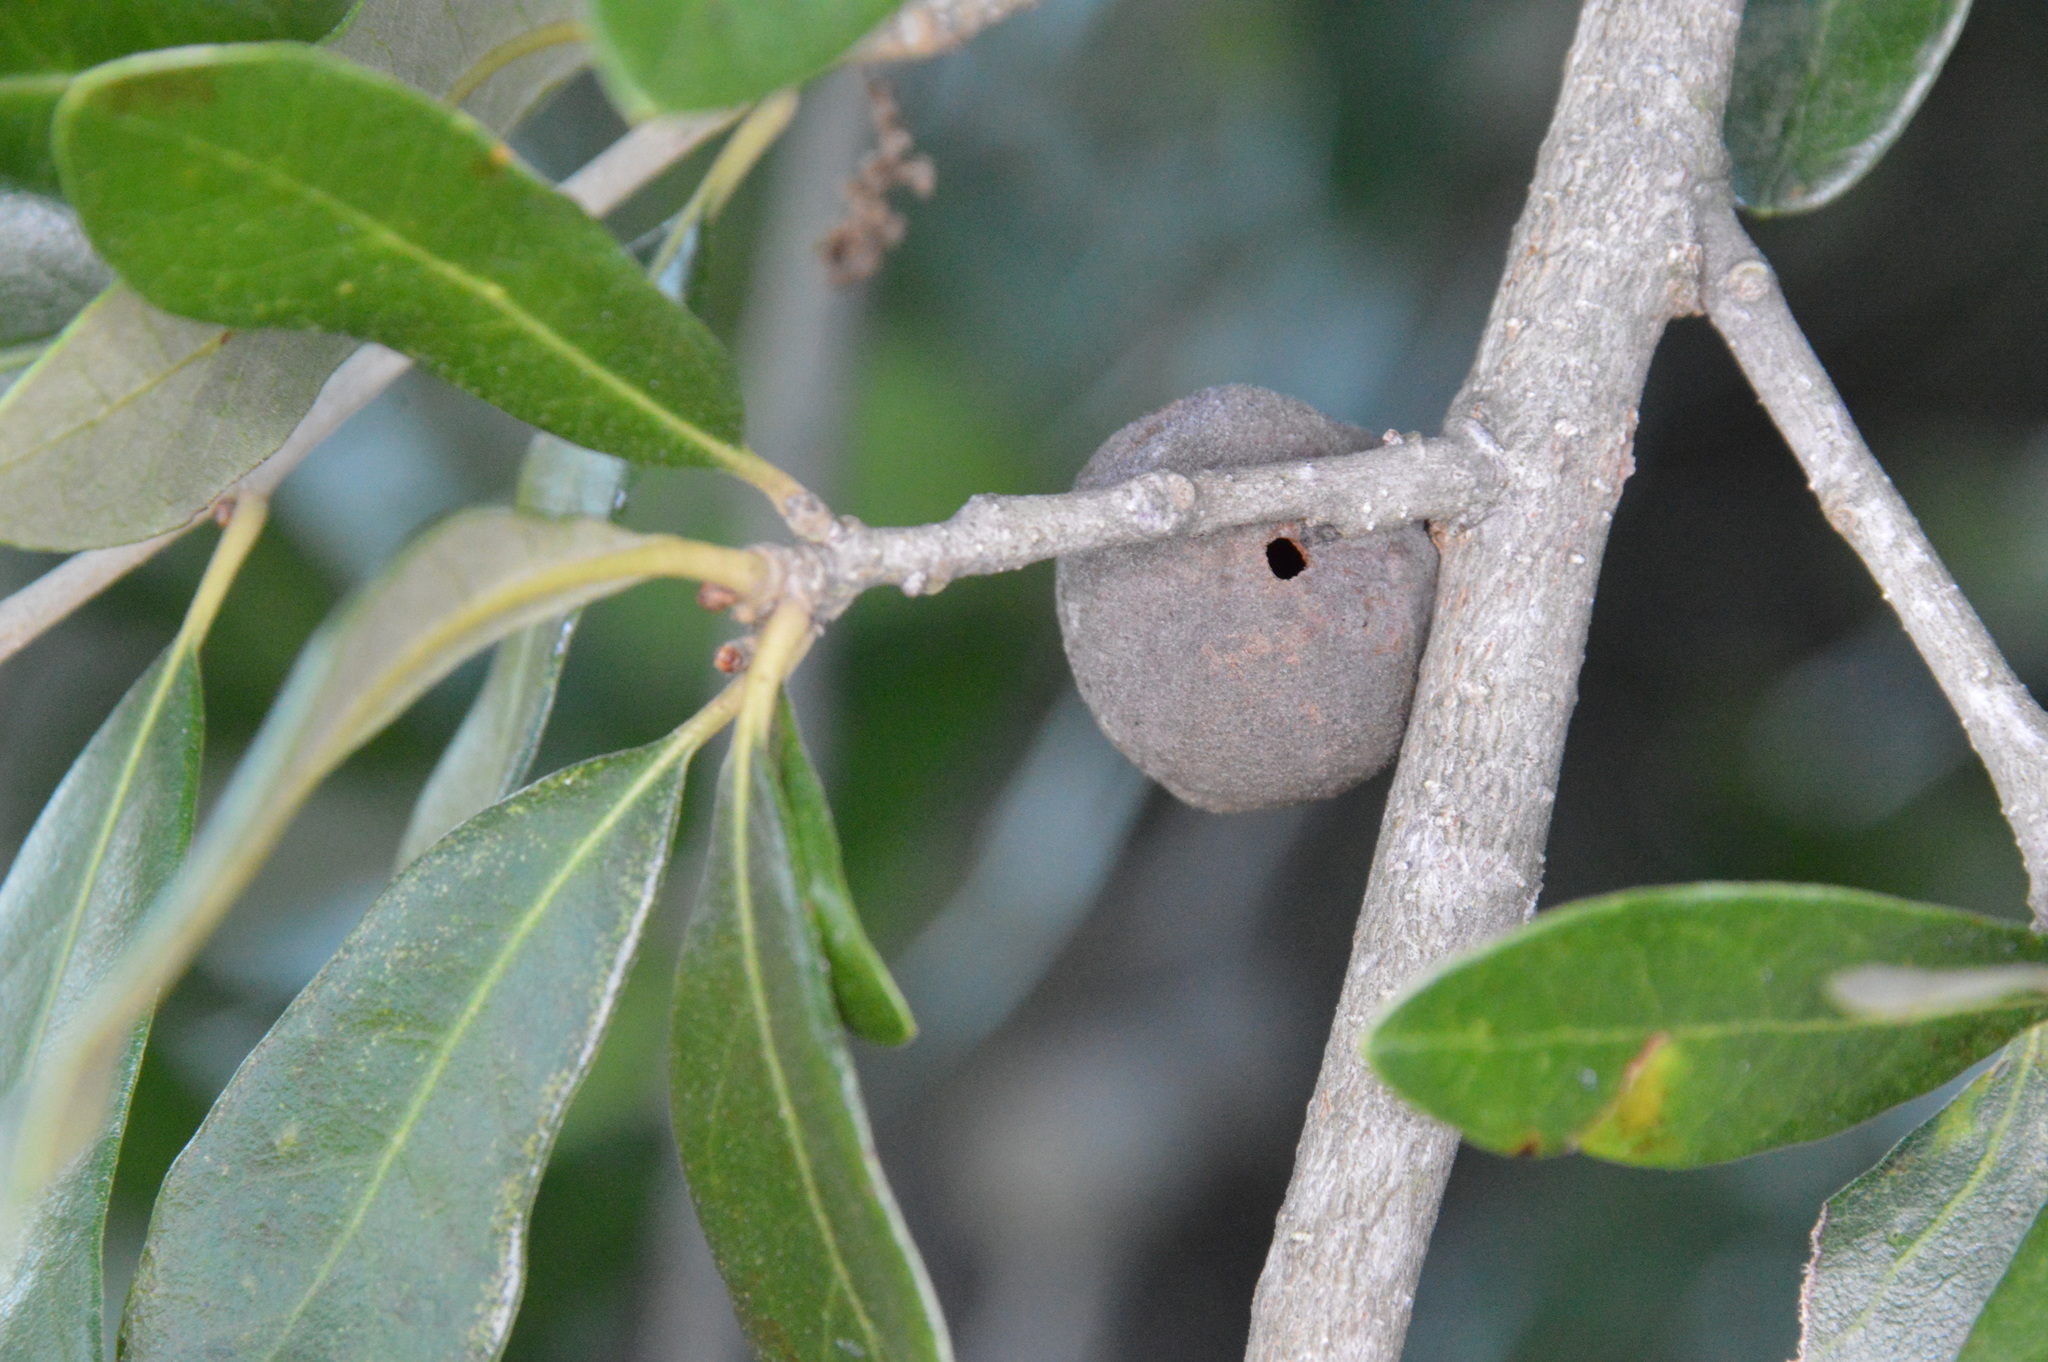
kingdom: Animalia
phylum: Arthropoda
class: Insecta
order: Hymenoptera
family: Cynipidae
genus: Disholcaspis
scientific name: Disholcaspis
